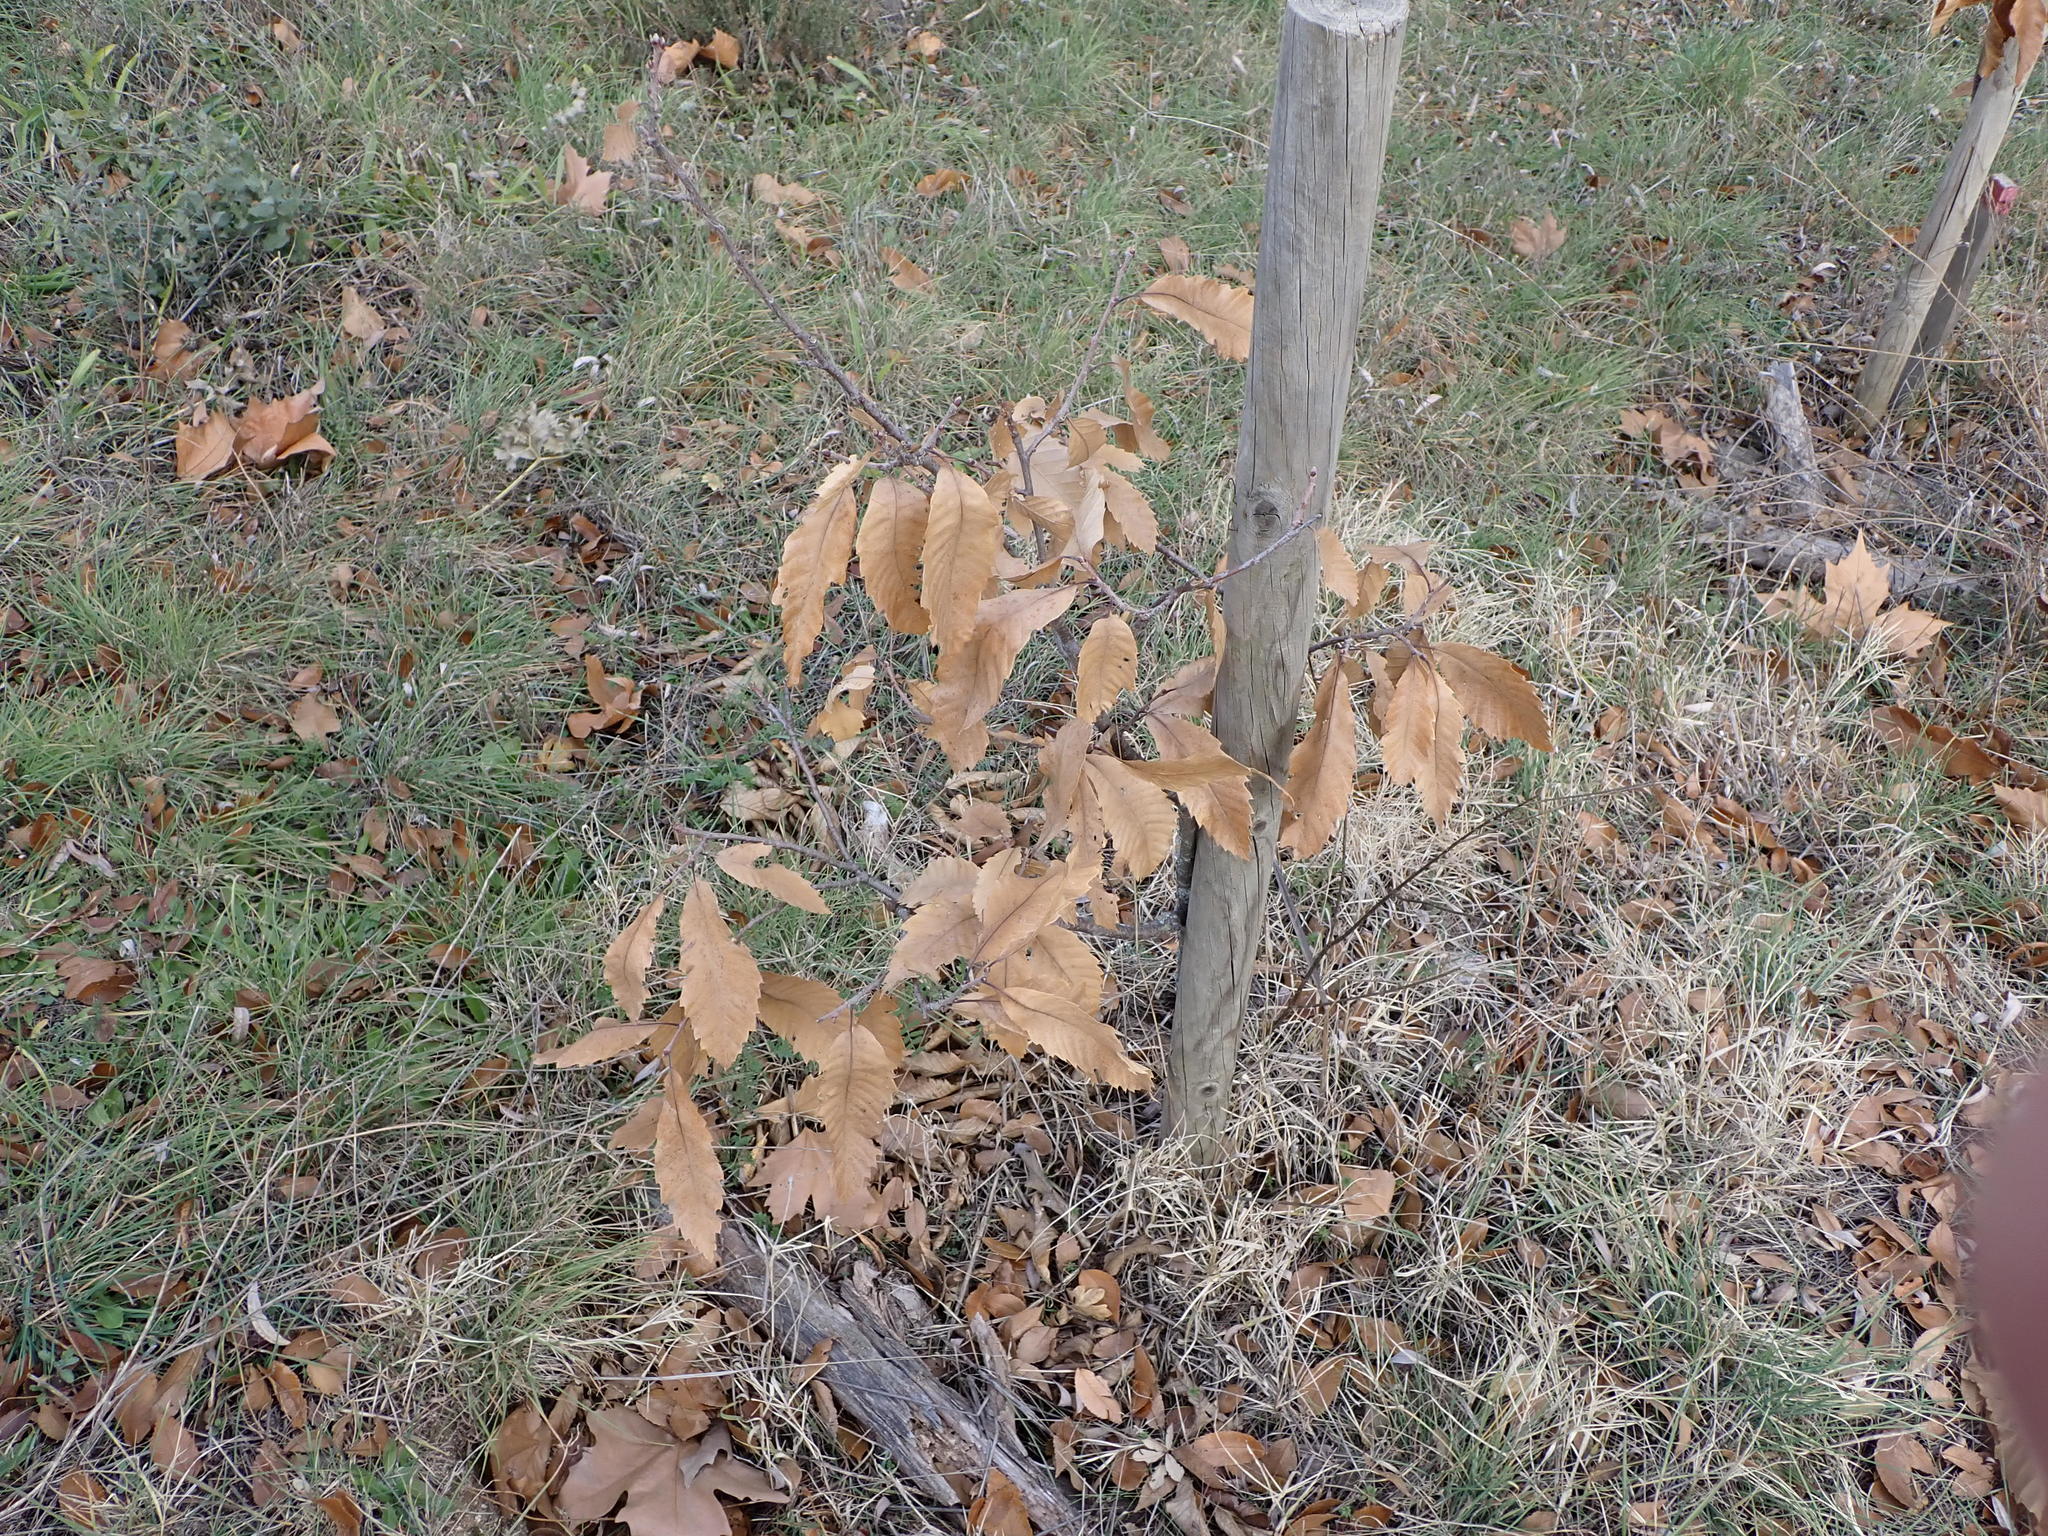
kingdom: Plantae
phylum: Tracheophyta
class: Magnoliopsida
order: Fagales
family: Fagaceae
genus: Castanea
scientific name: Castanea sativa
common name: Sweet chestnut
